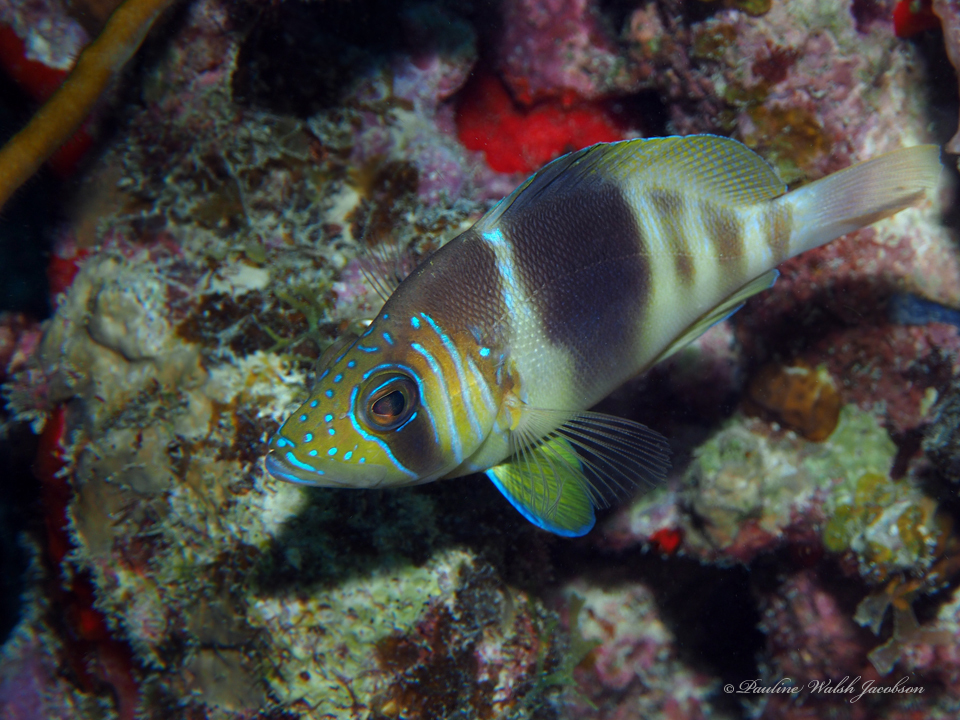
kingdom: Animalia
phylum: Chordata
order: Perciformes
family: Serranidae
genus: Hypoplectrus
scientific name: Hypoplectrus puella
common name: Barred hamlet
